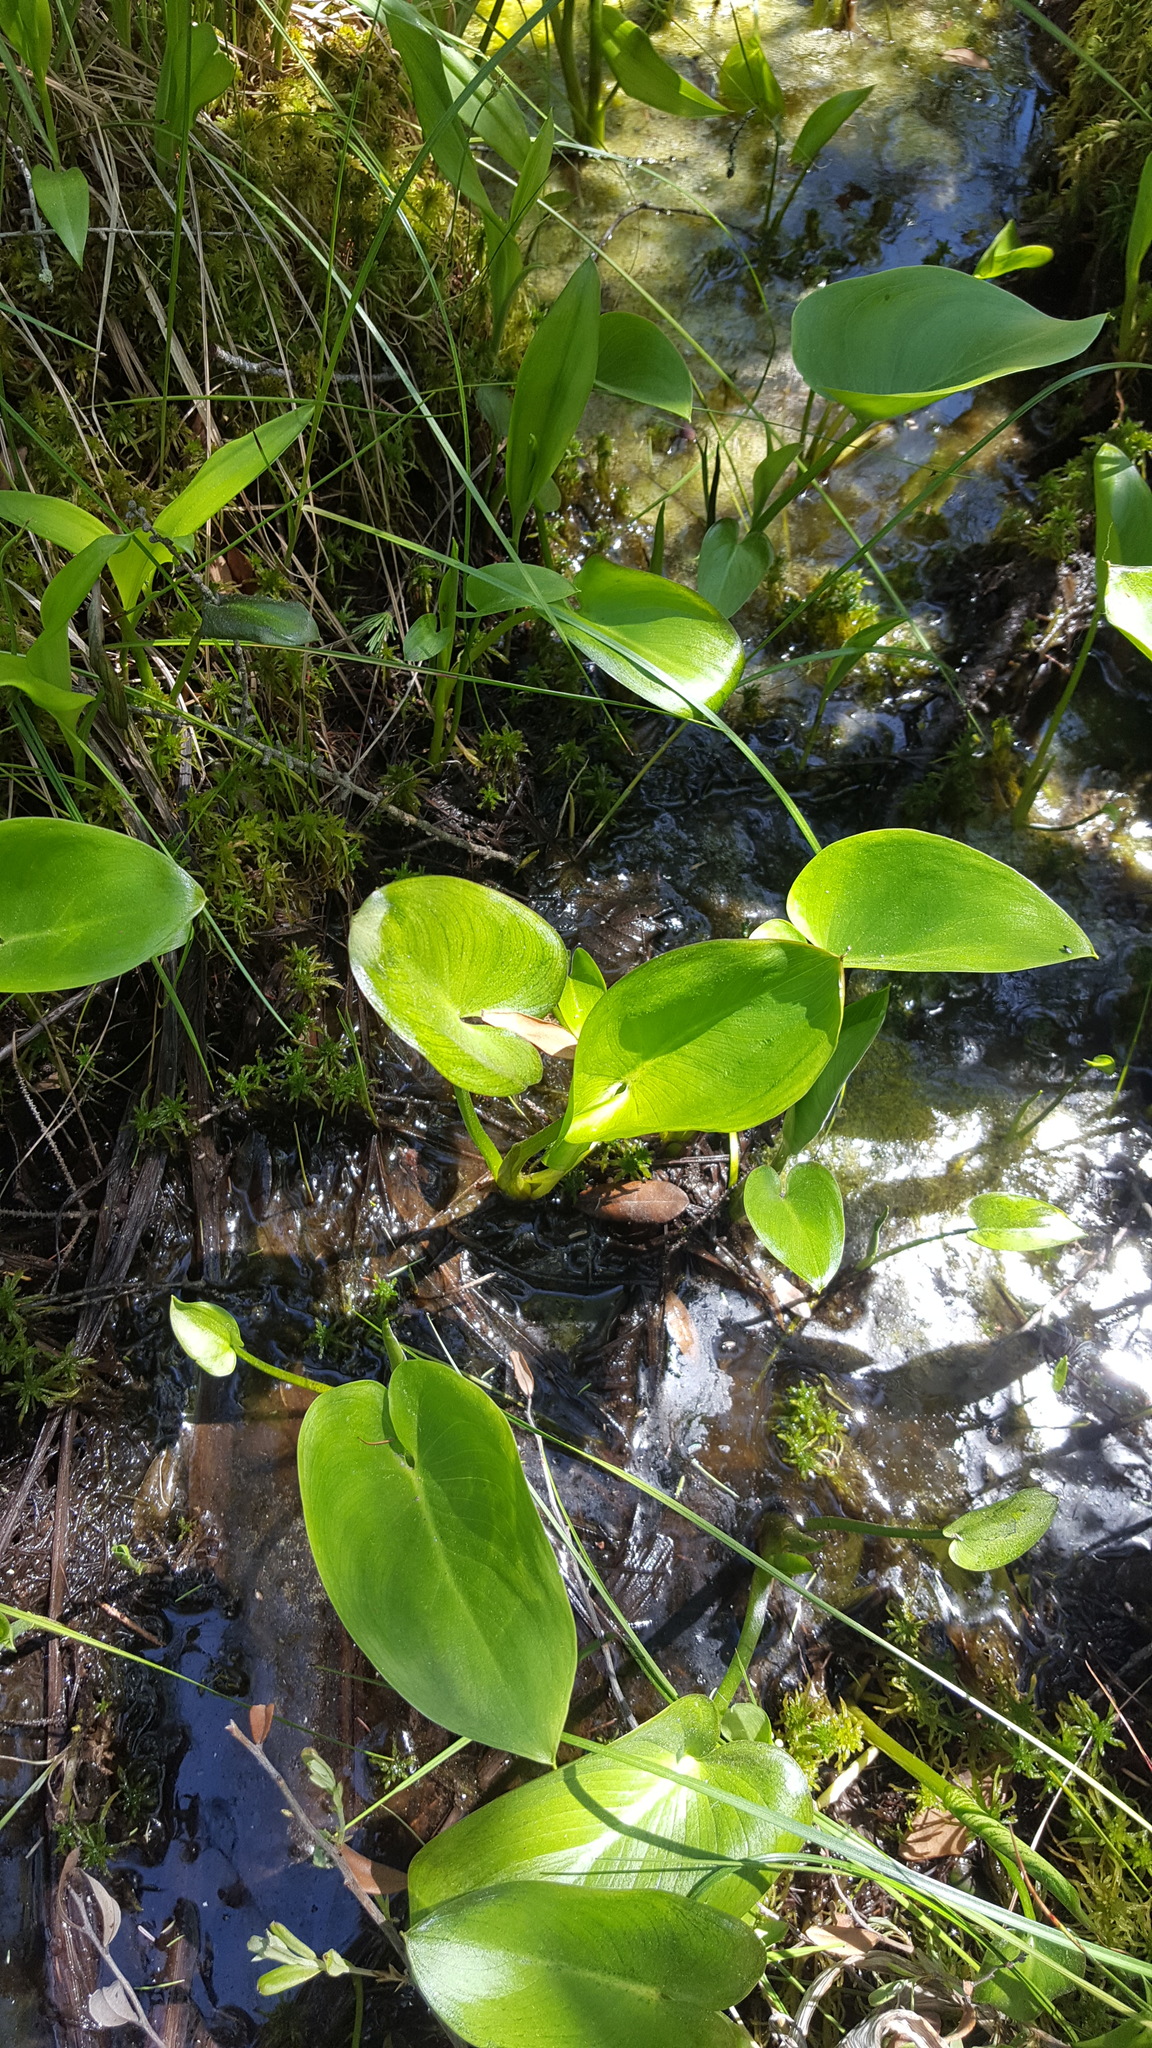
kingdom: Plantae
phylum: Tracheophyta
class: Liliopsida
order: Alismatales
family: Araceae
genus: Calla
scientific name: Calla palustris
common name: Bog arum
